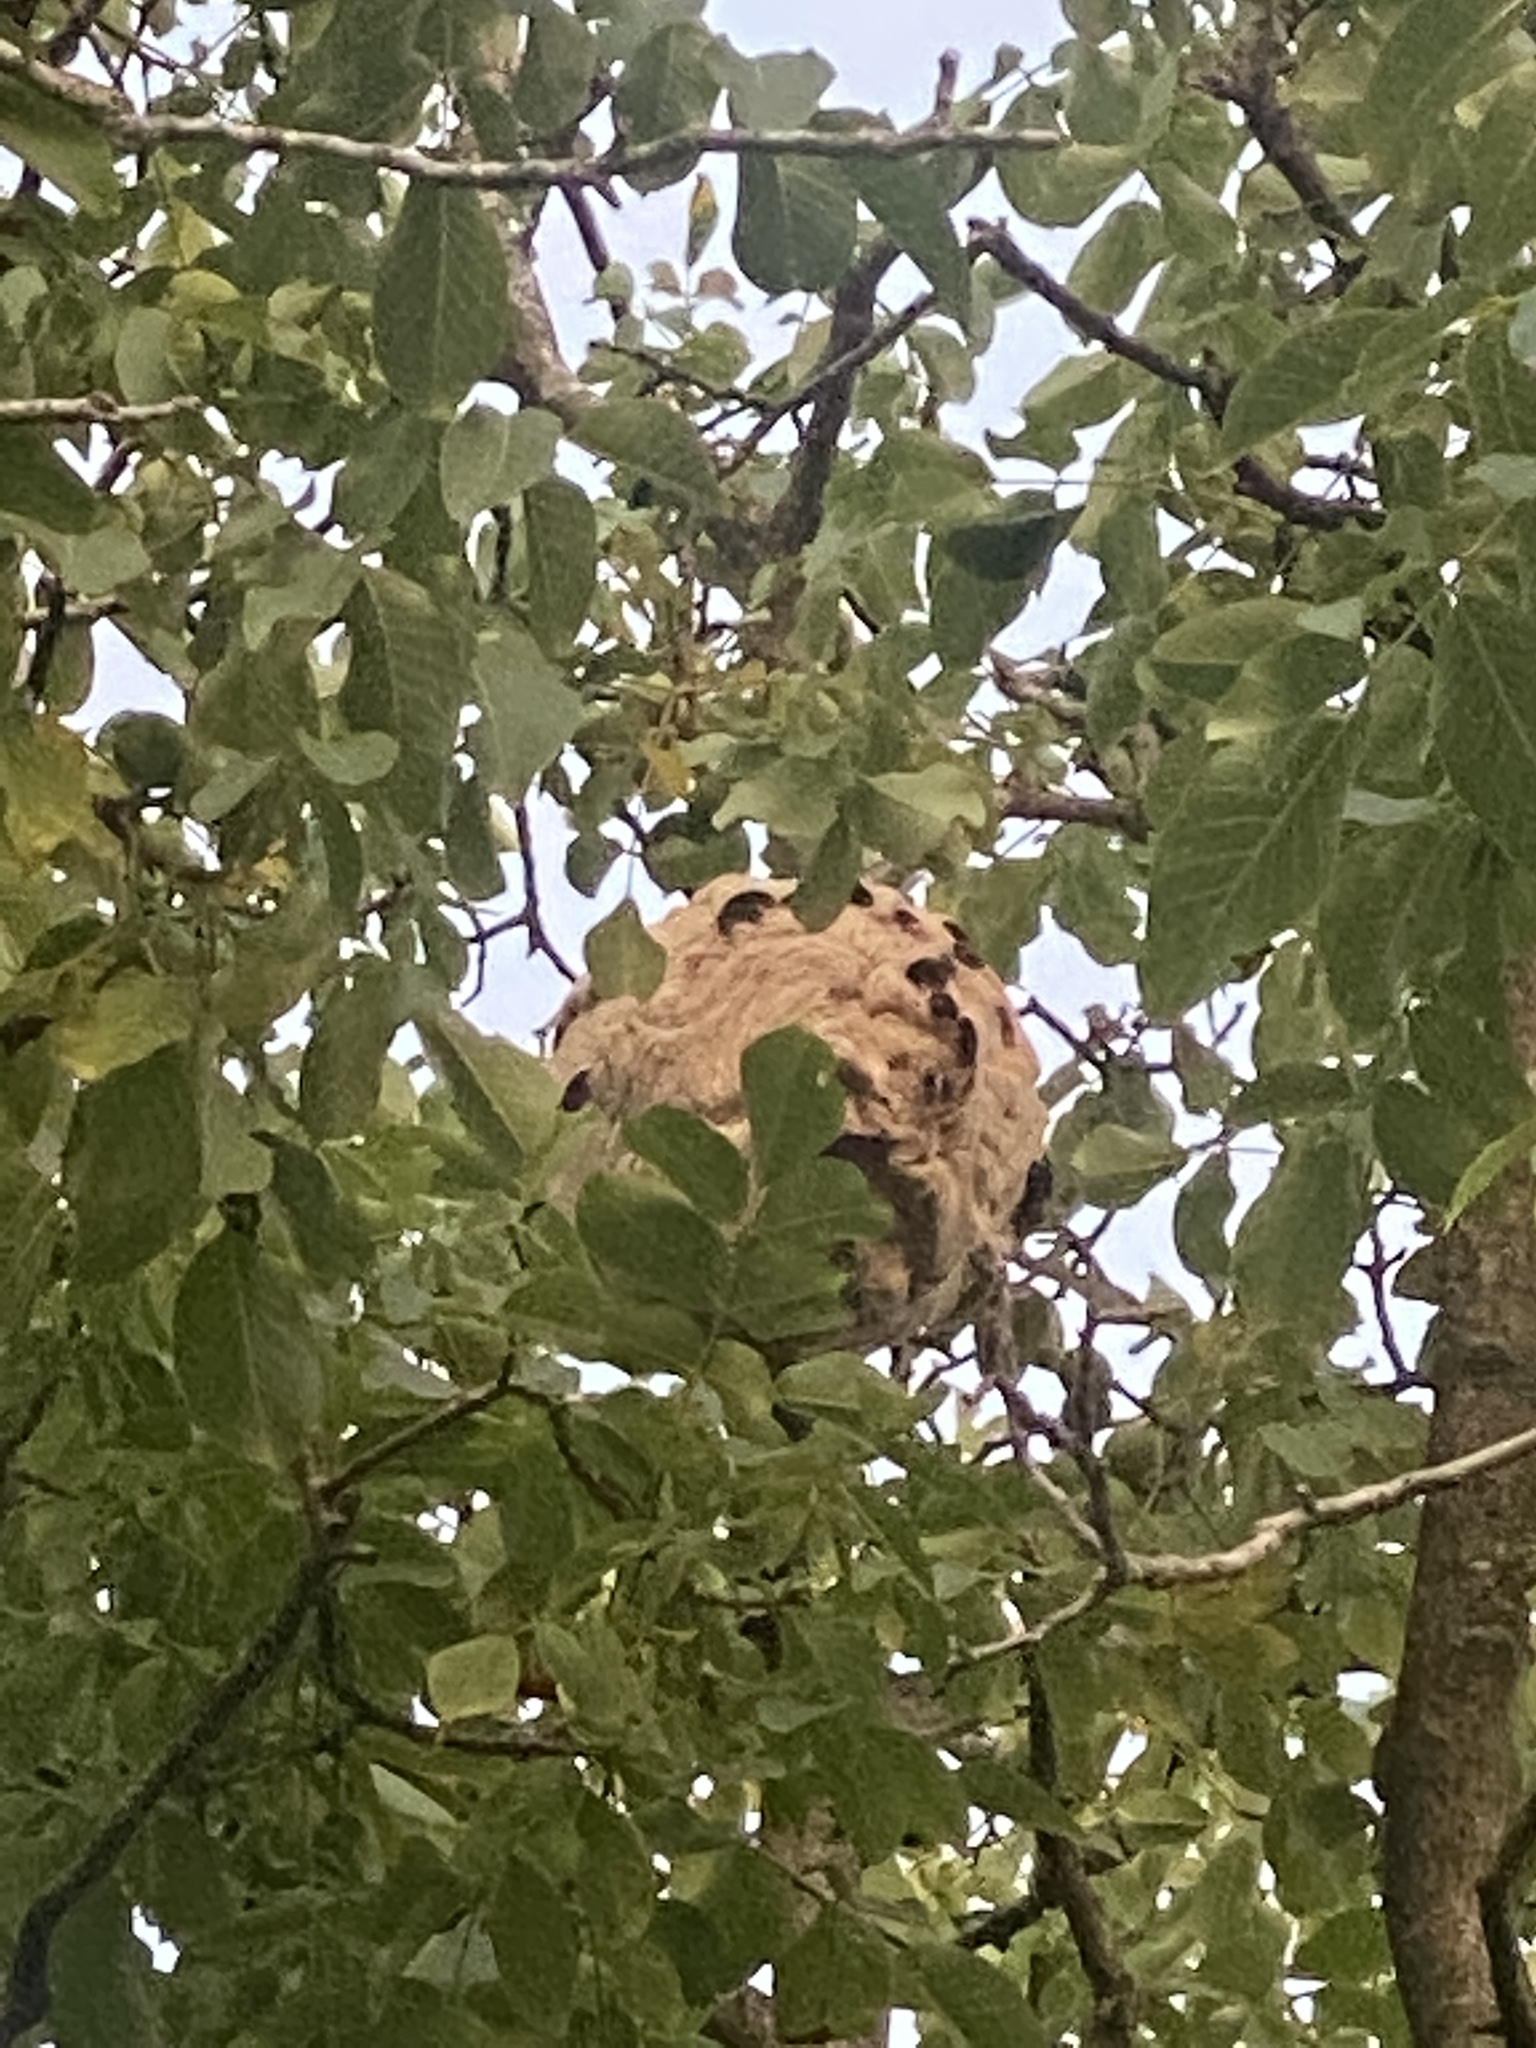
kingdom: Animalia
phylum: Arthropoda
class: Insecta
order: Hymenoptera
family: Vespidae
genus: Vespa
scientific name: Vespa velutina
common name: Asian hornet
